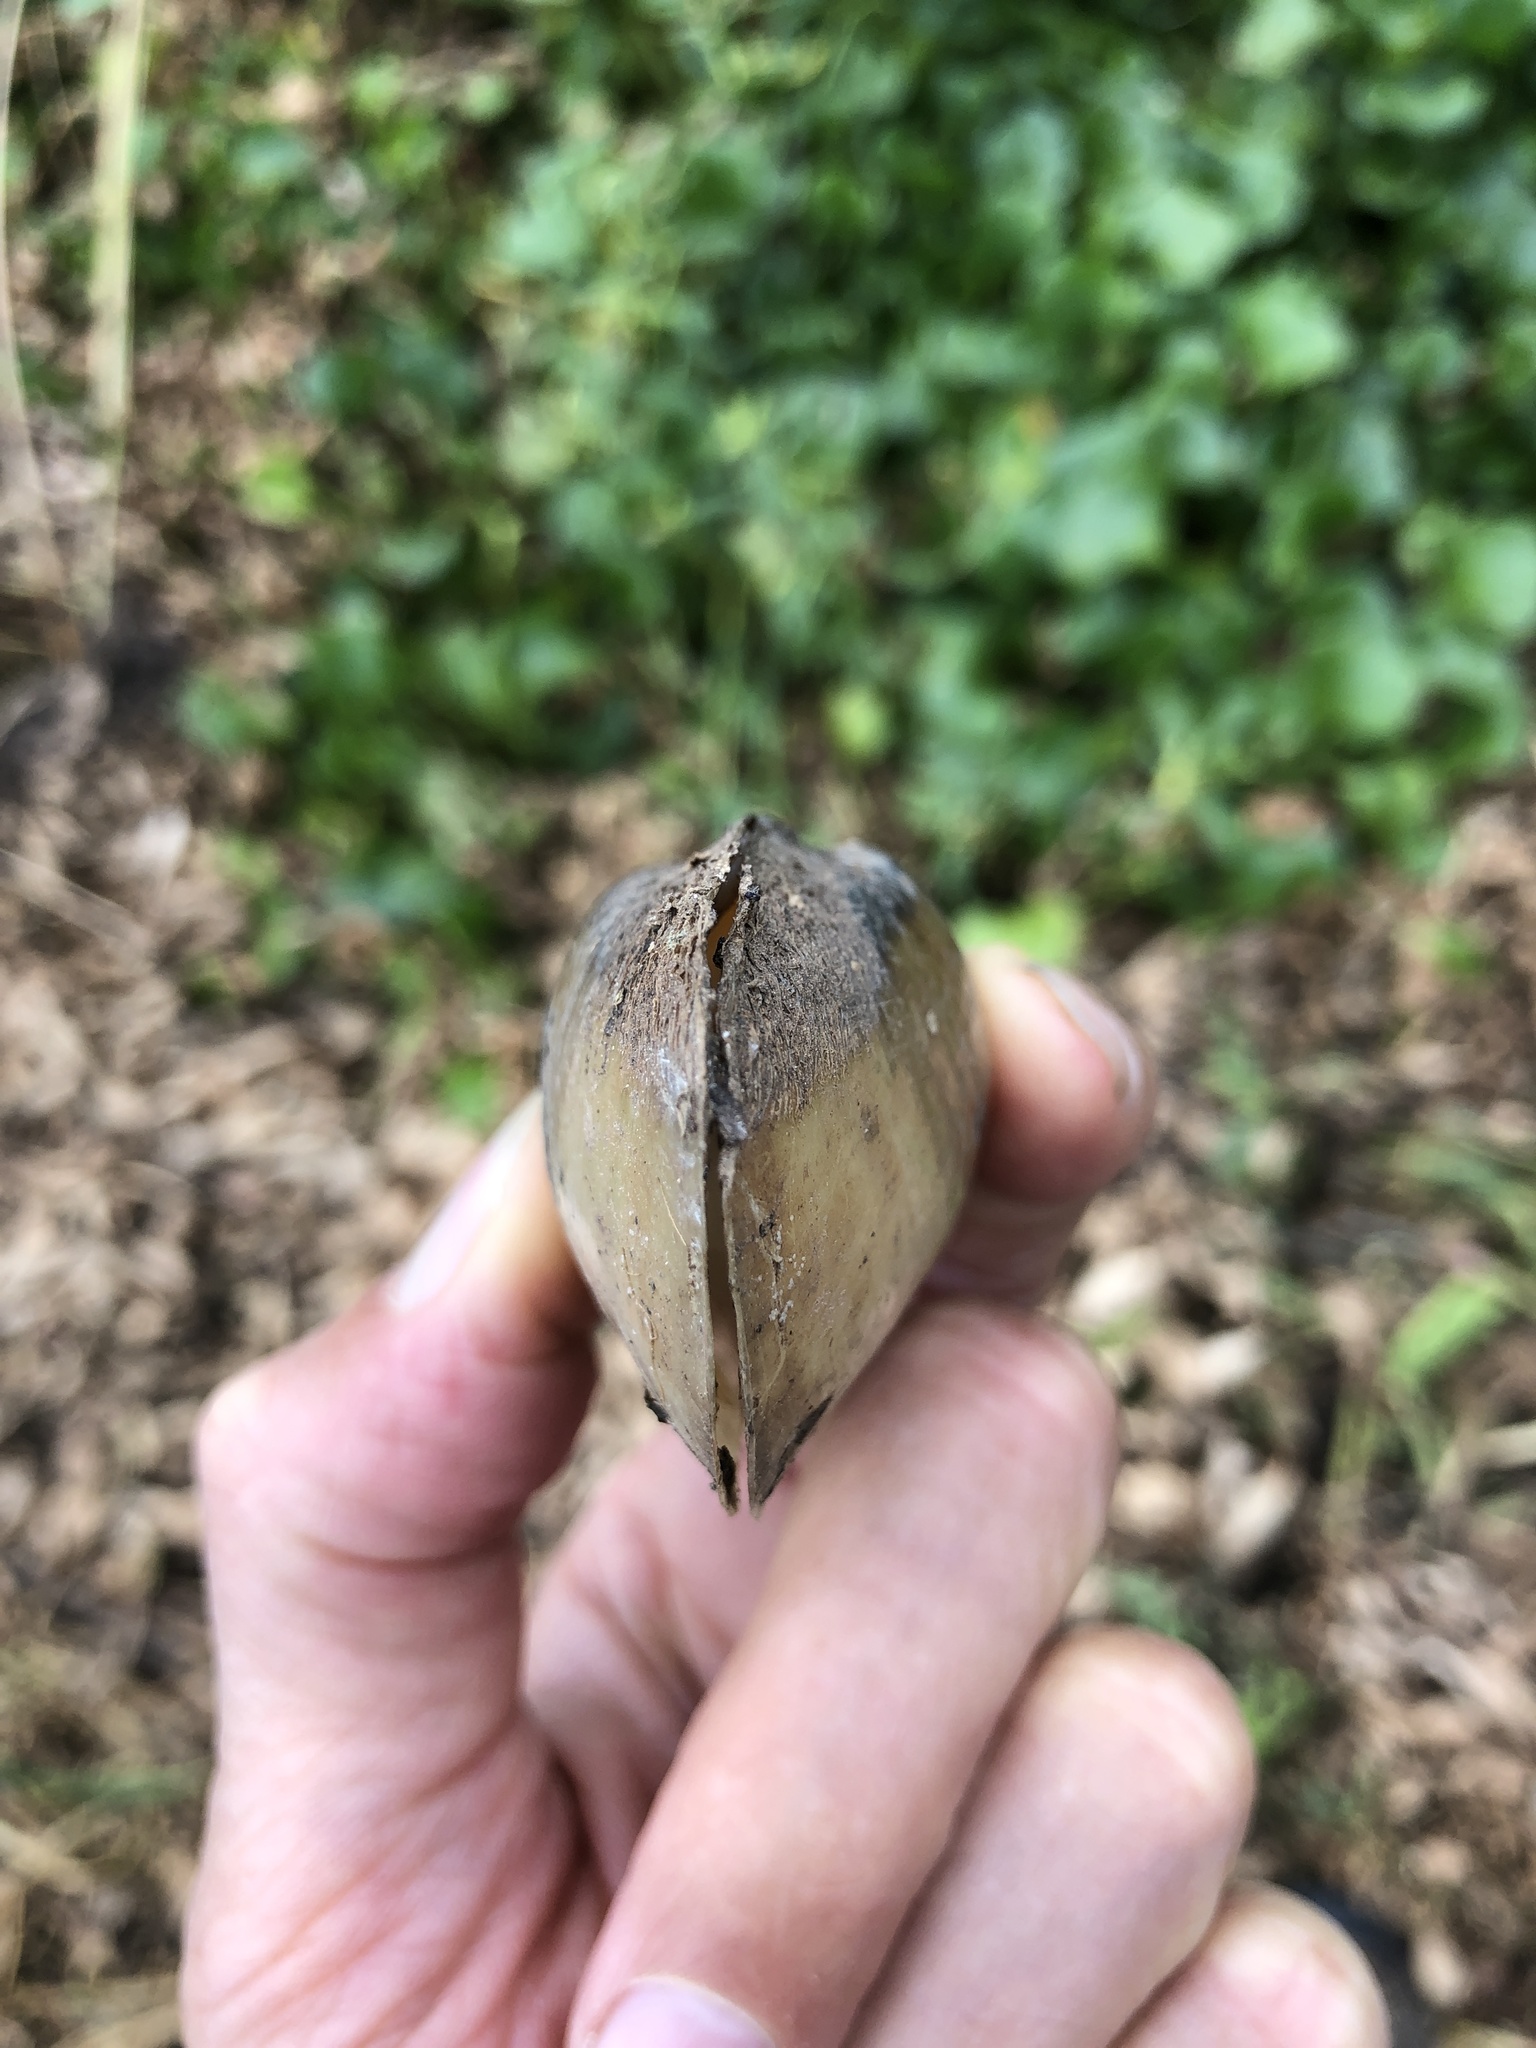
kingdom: Animalia
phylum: Mollusca
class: Bivalvia
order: Unionida
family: Unionidae
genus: Lampsilis
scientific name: Lampsilis teres
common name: Yellow sandshell
